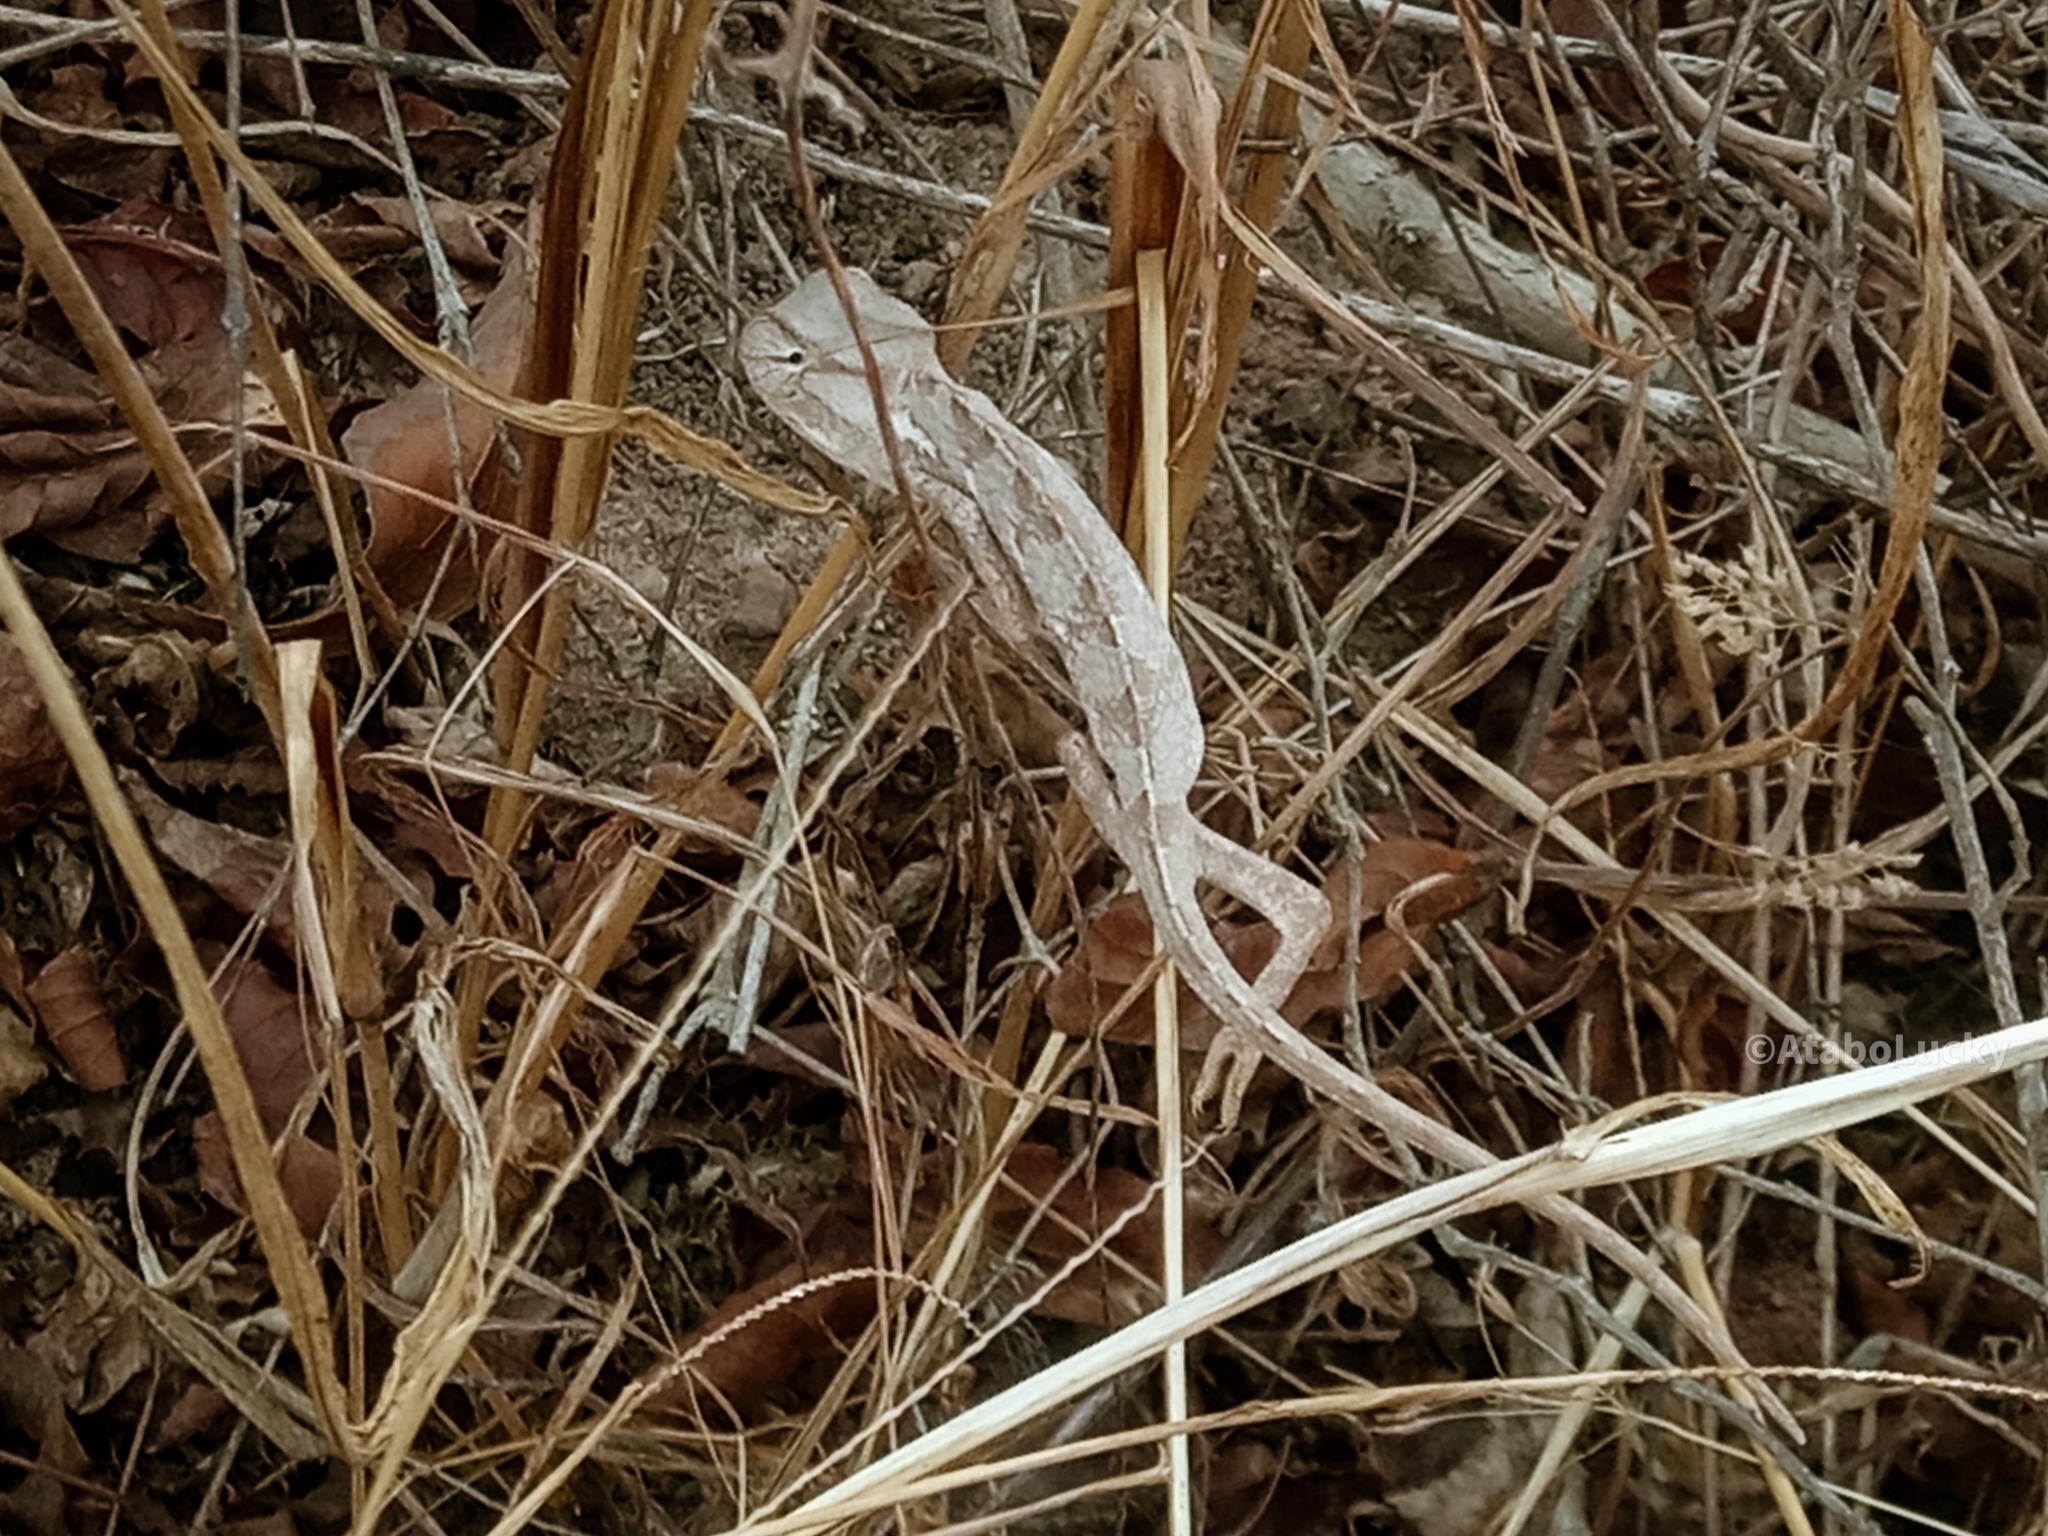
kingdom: Animalia
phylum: Chordata
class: Squamata
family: Chamaeleonidae
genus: Chamaeleo
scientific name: Chamaeleo africanus
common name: African chameleon
